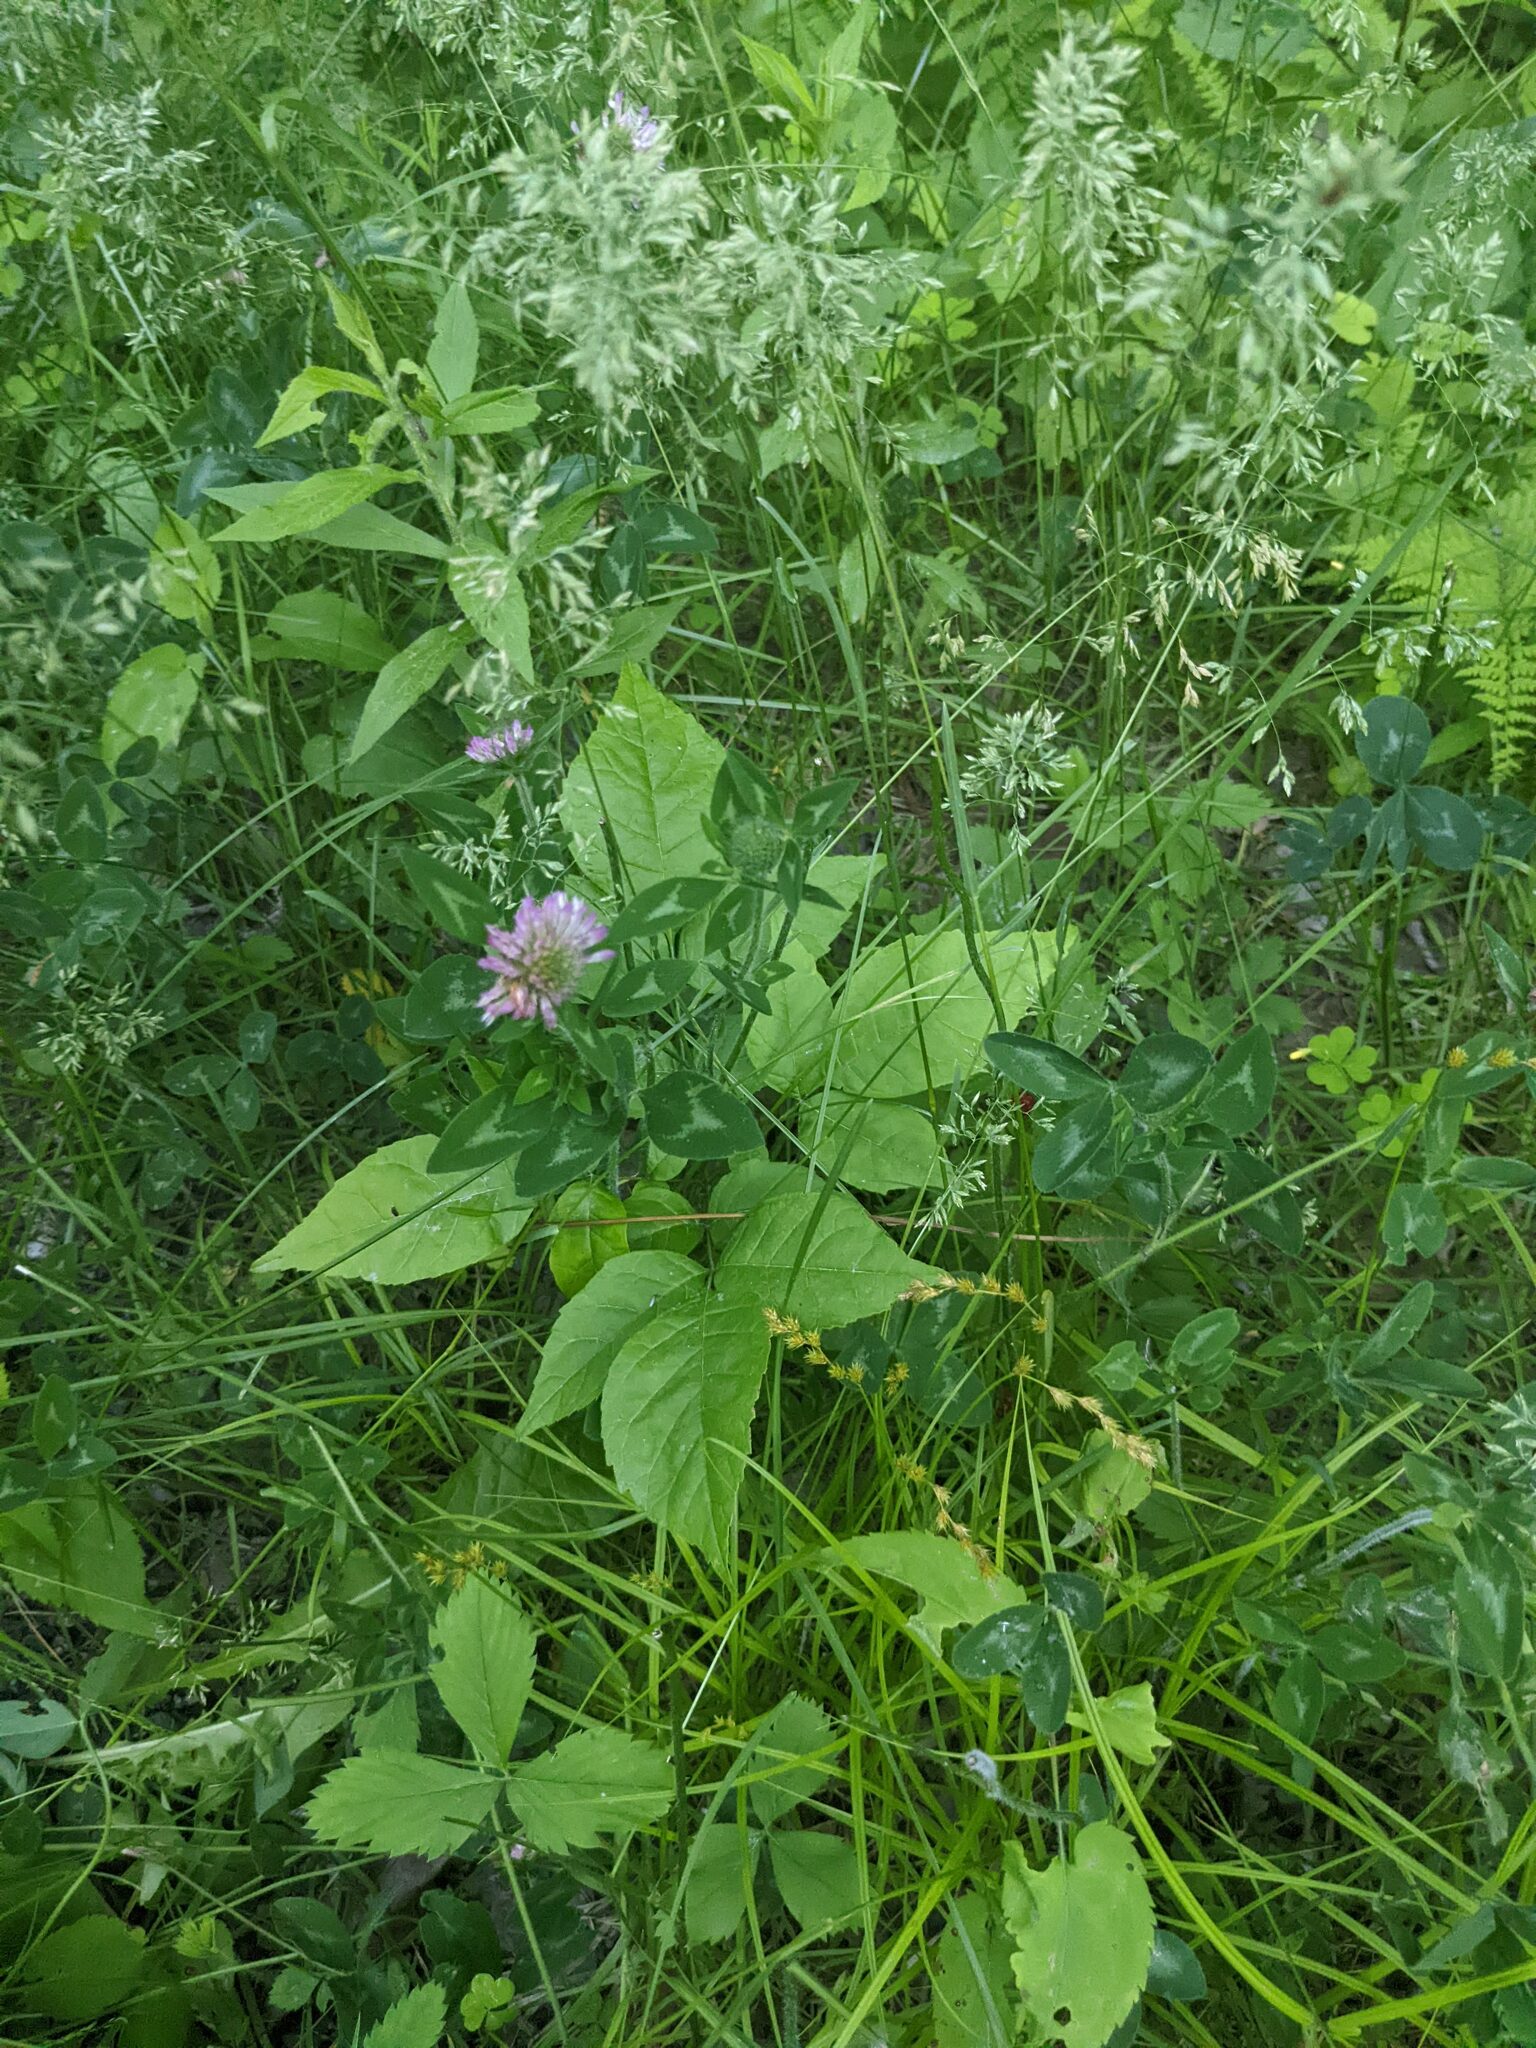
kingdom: Plantae
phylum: Tracheophyta
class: Magnoliopsida
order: Fabales
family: Fabaceae
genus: Trifolium
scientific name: Trifolium pratense
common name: Red clover
